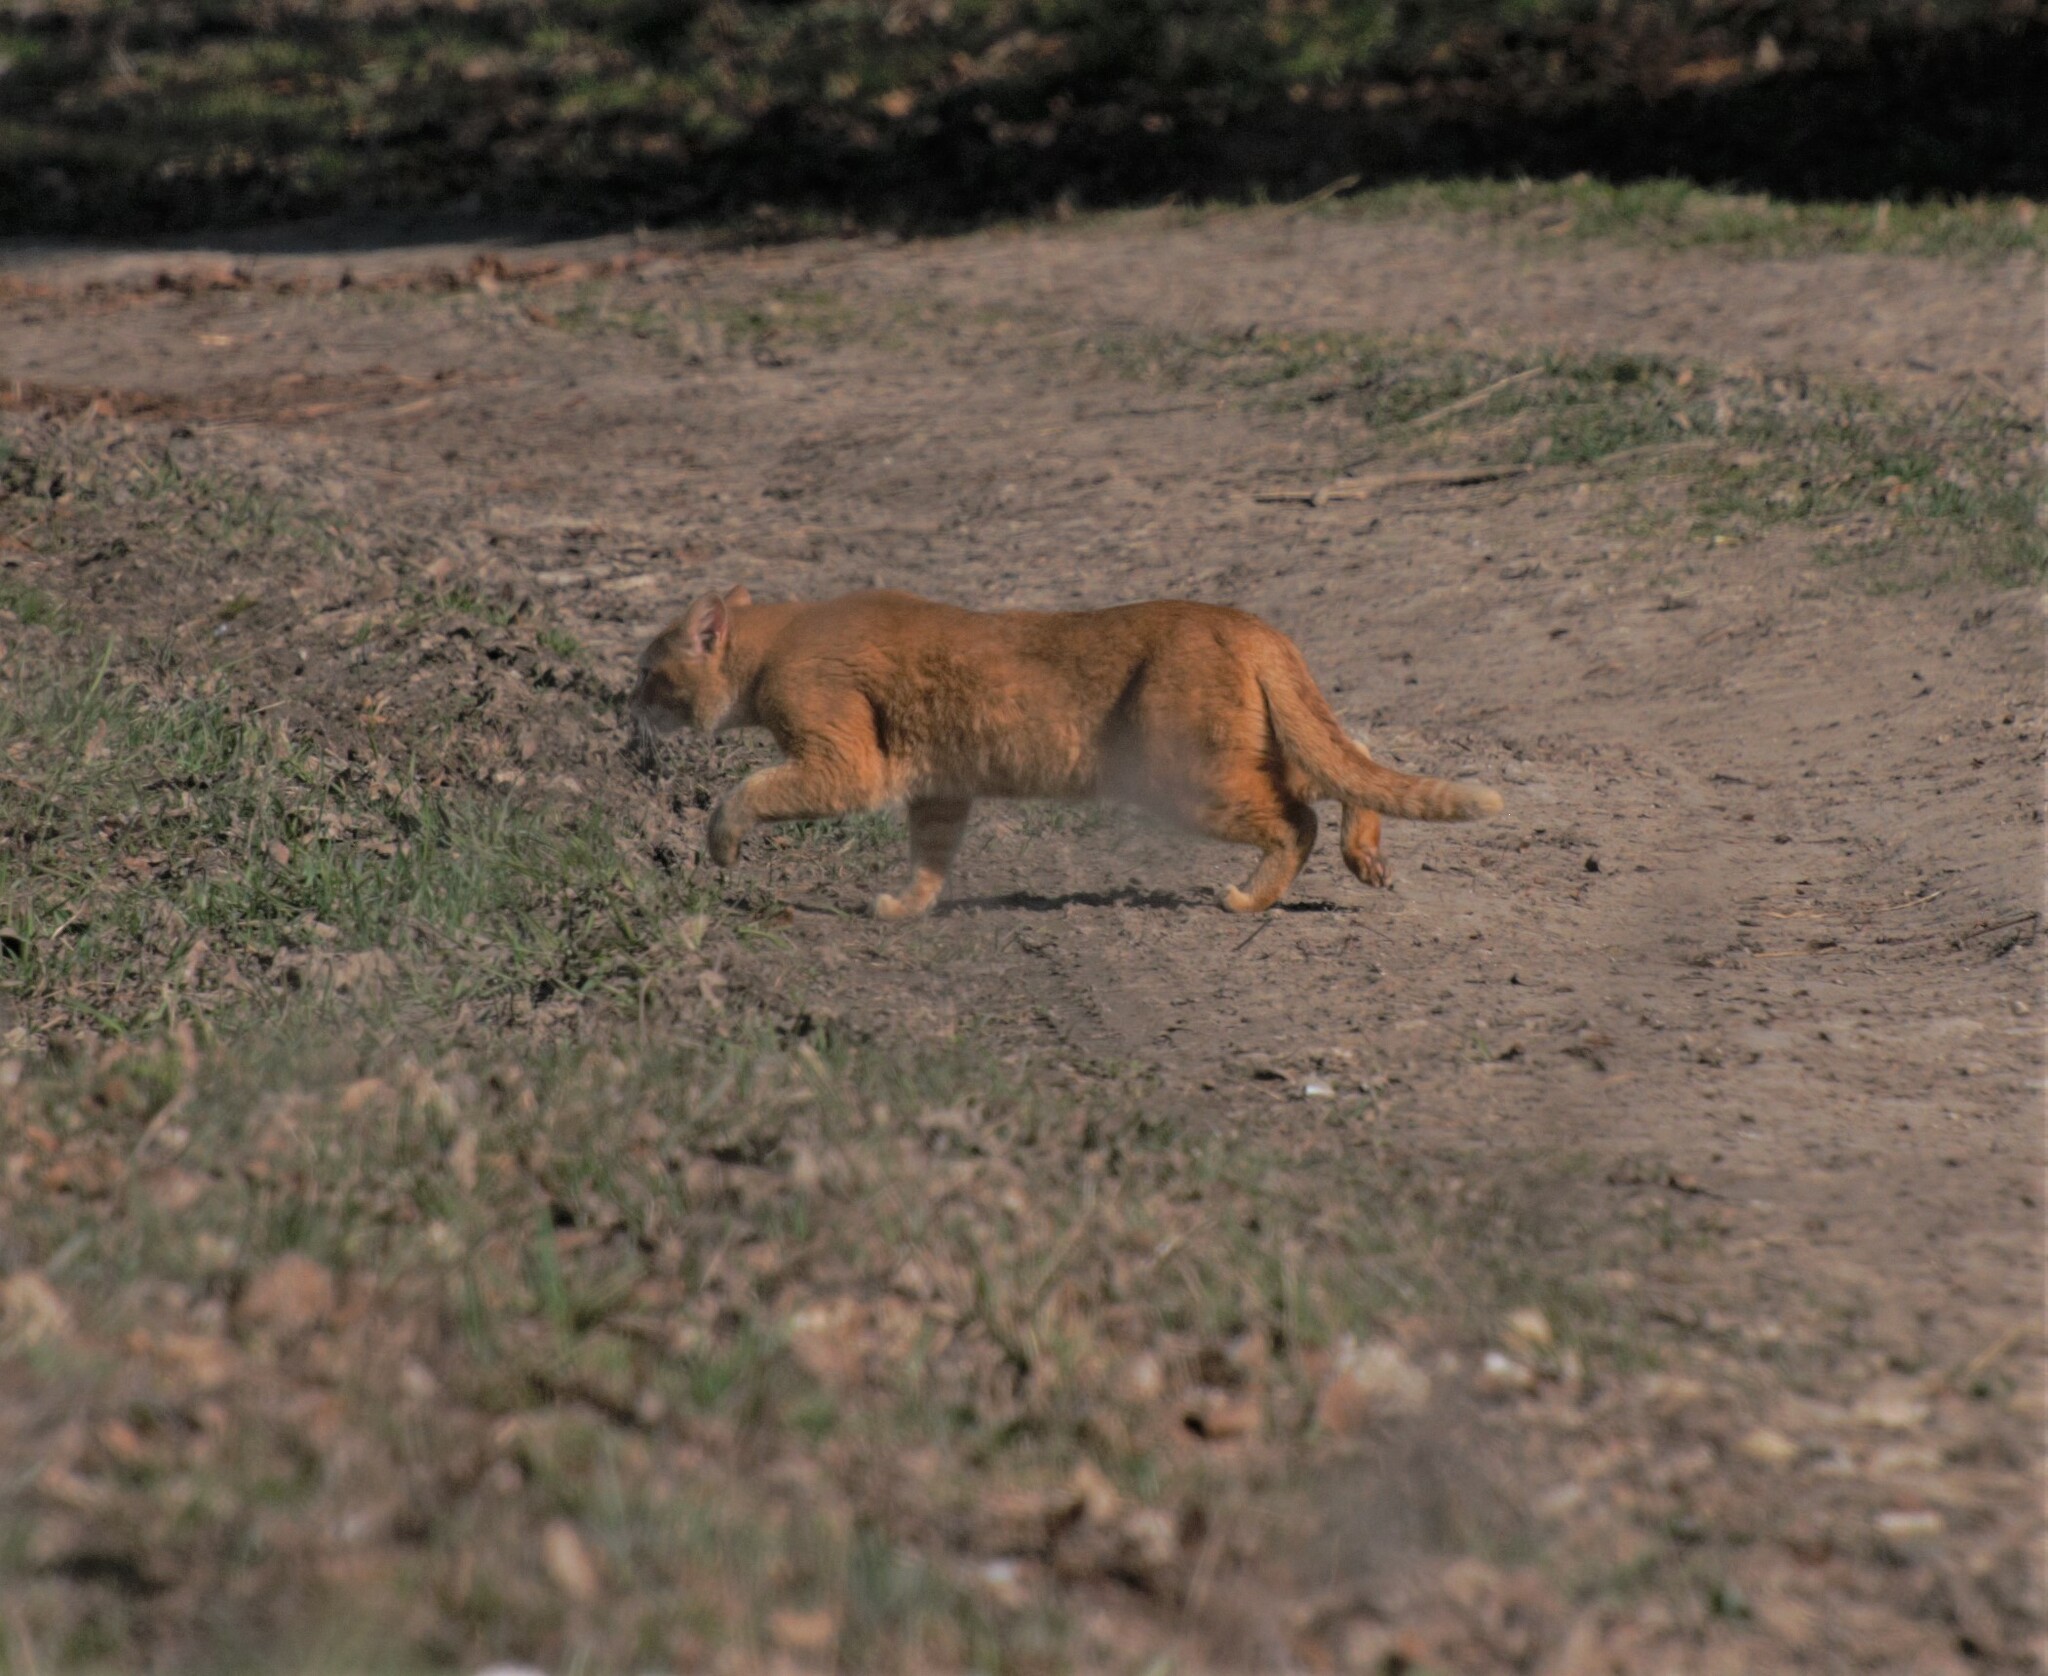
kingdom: Animalia
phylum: Chordata
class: Mammalia
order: Carnivora
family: Felidae
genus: Felis
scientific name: Felis catus
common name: Domestic cat
